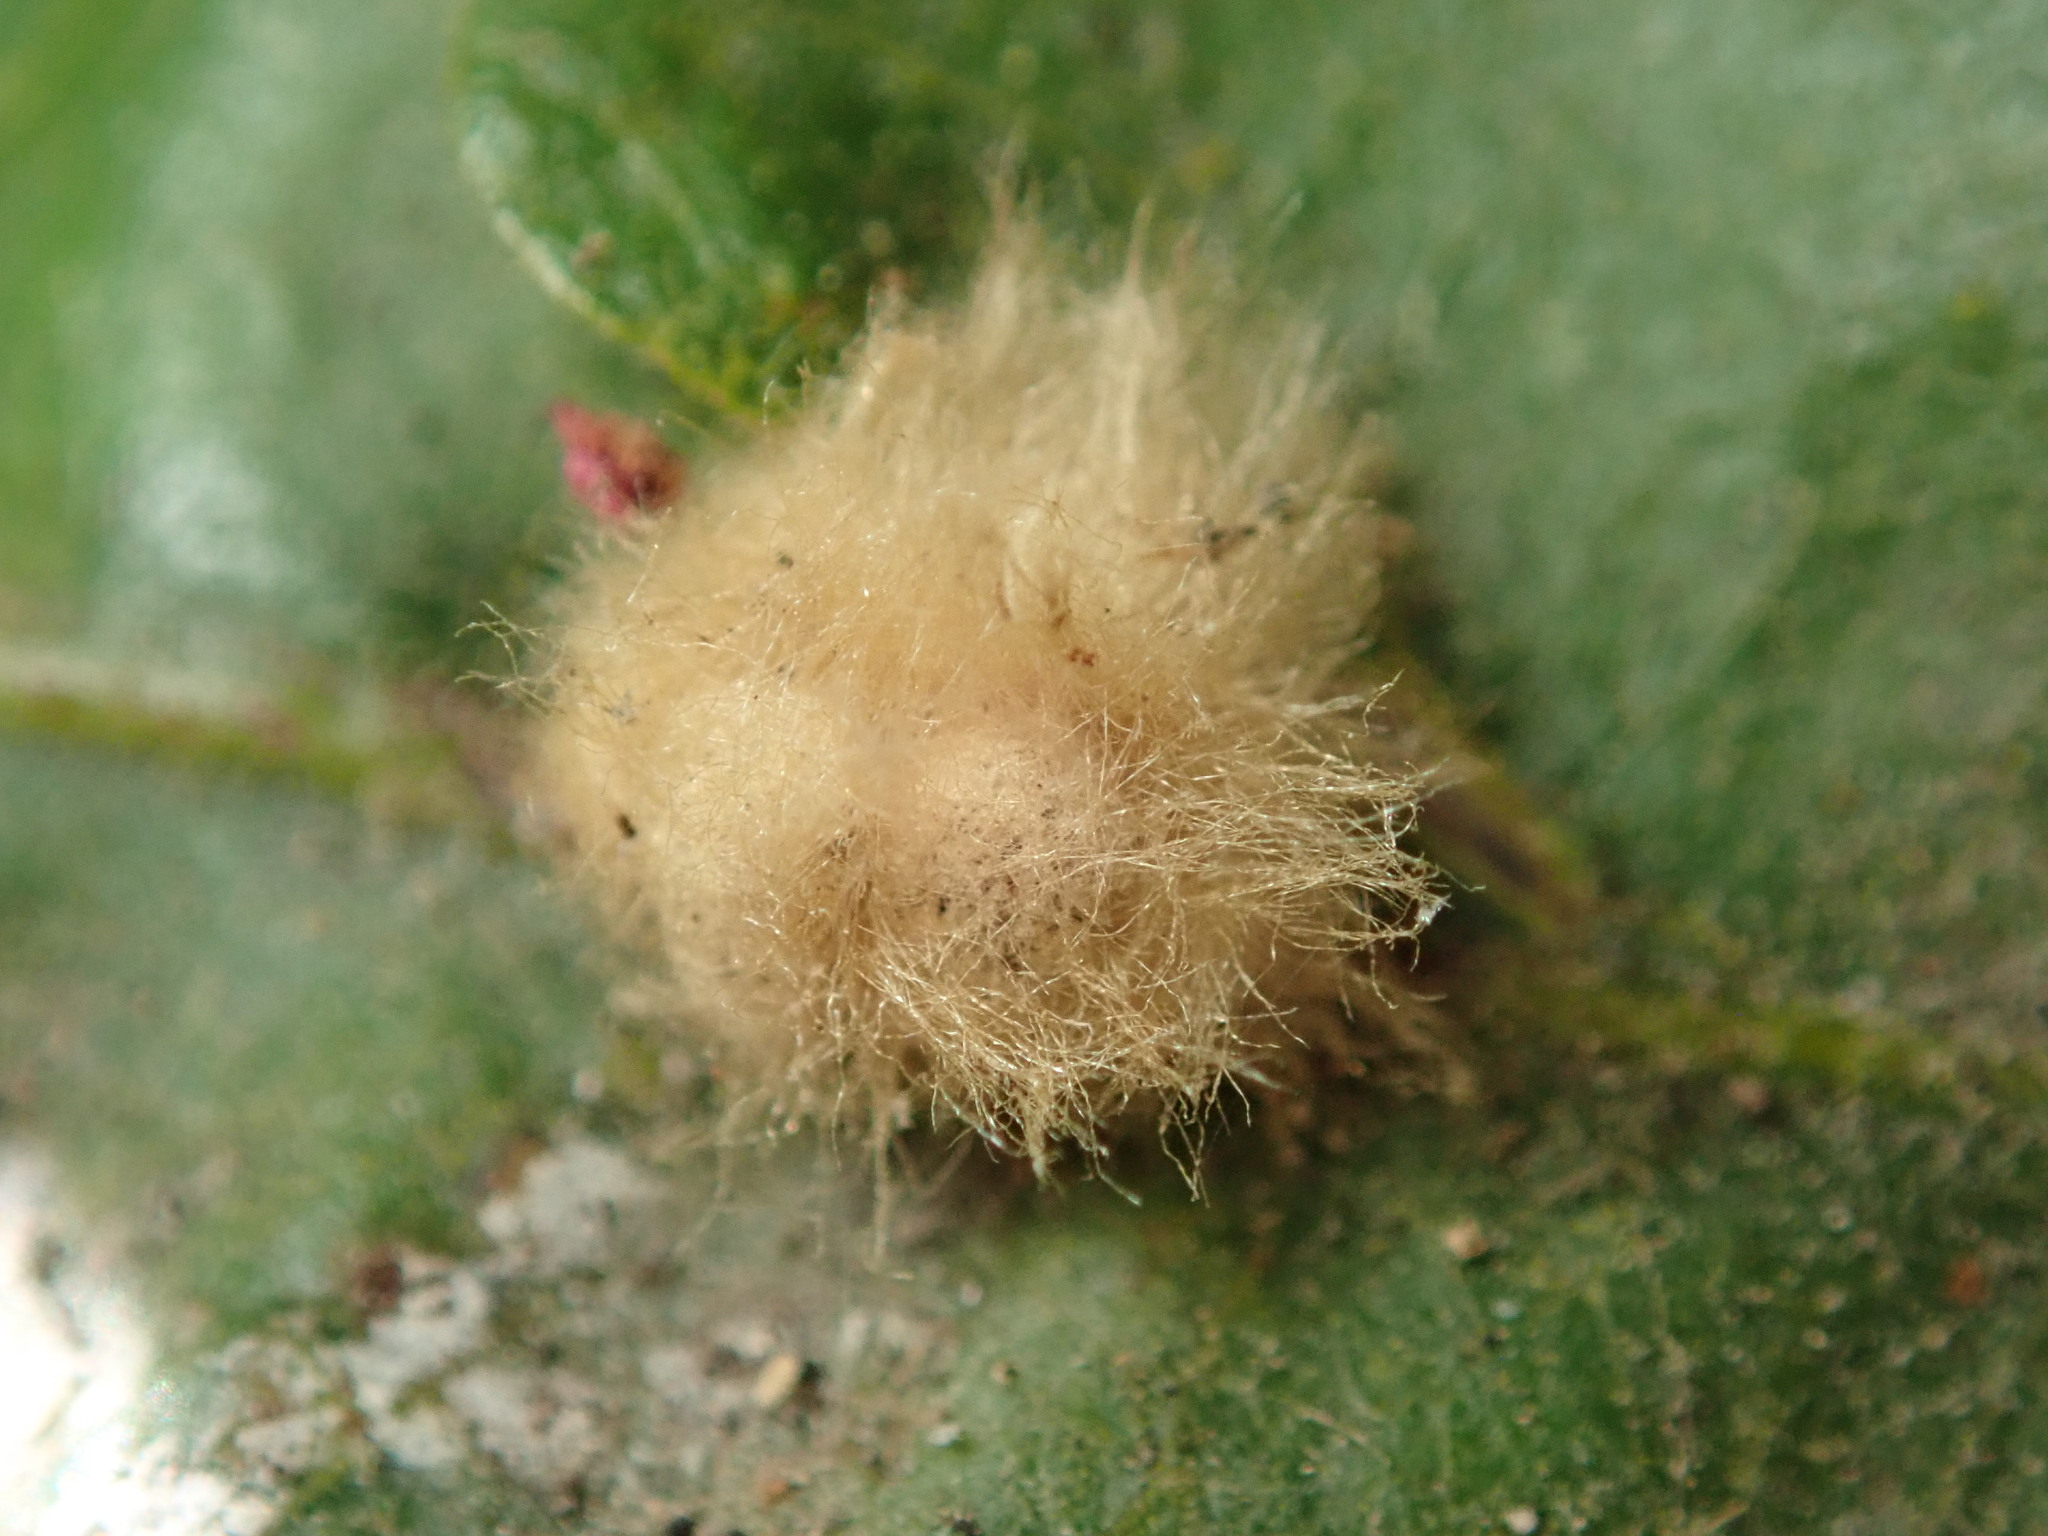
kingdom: Animalia
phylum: Arthropoda
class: Insecta
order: Hymenoptera
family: Cynipidae
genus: Andricus
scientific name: Andricus Druon fullawayi
